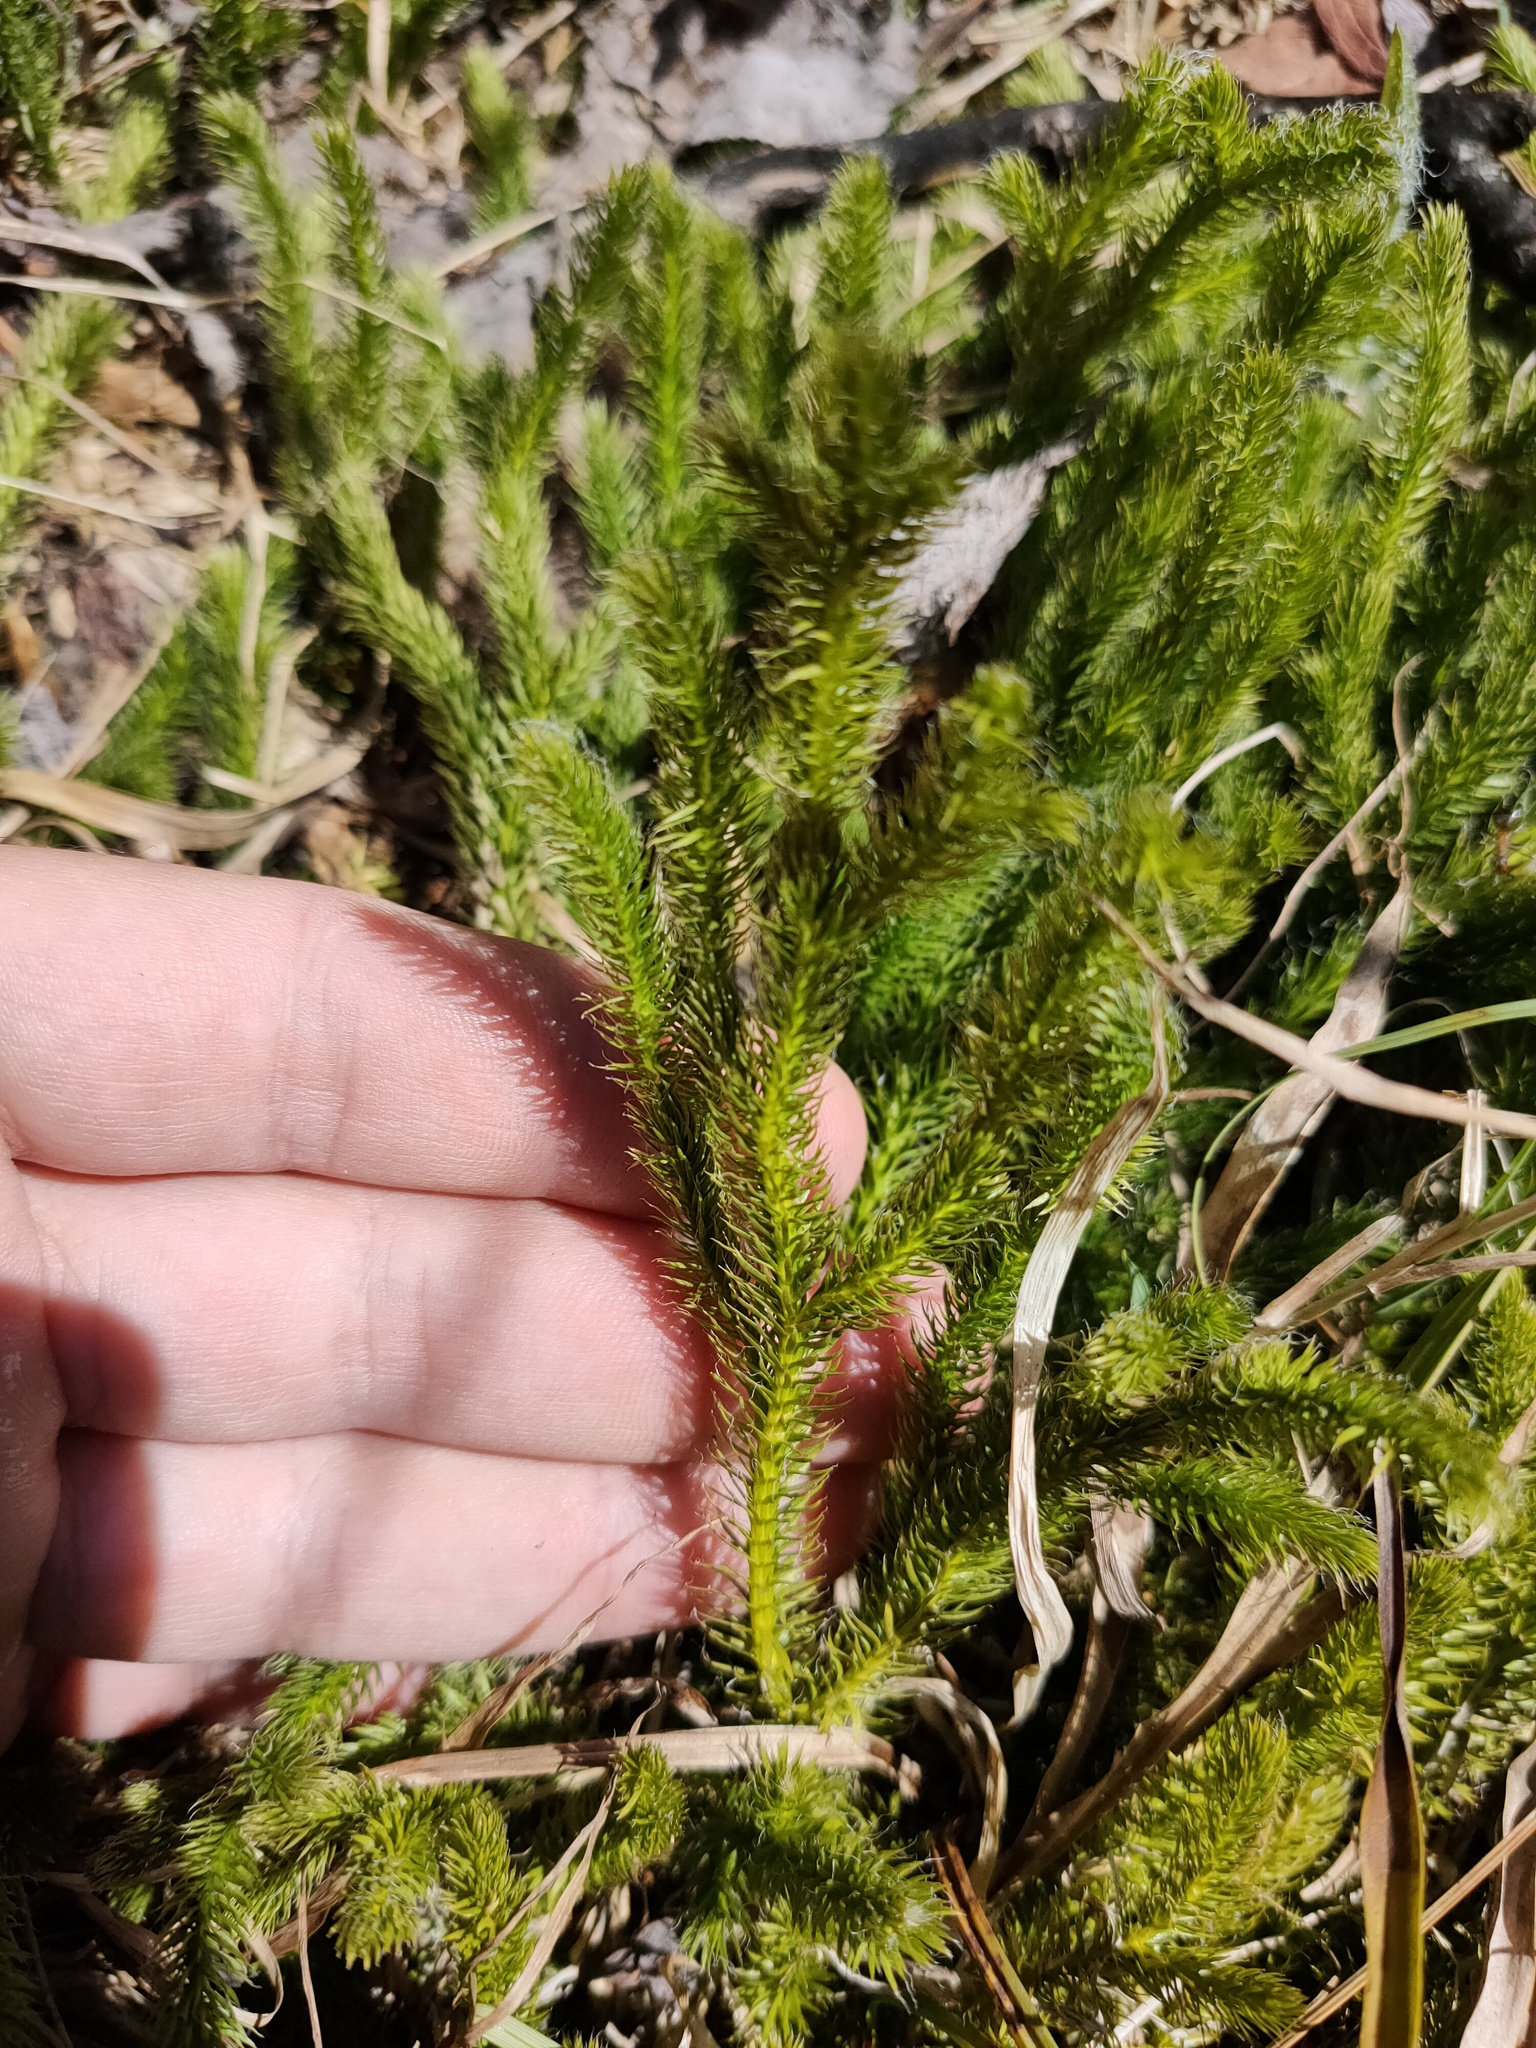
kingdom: Plantae
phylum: Tracheophyta
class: Lycopodiopsida
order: Lycopodiales
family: Lycopodiaceae
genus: Lycopodium
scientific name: Lycopodium clavatum
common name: Stag's-horn clubmoss
